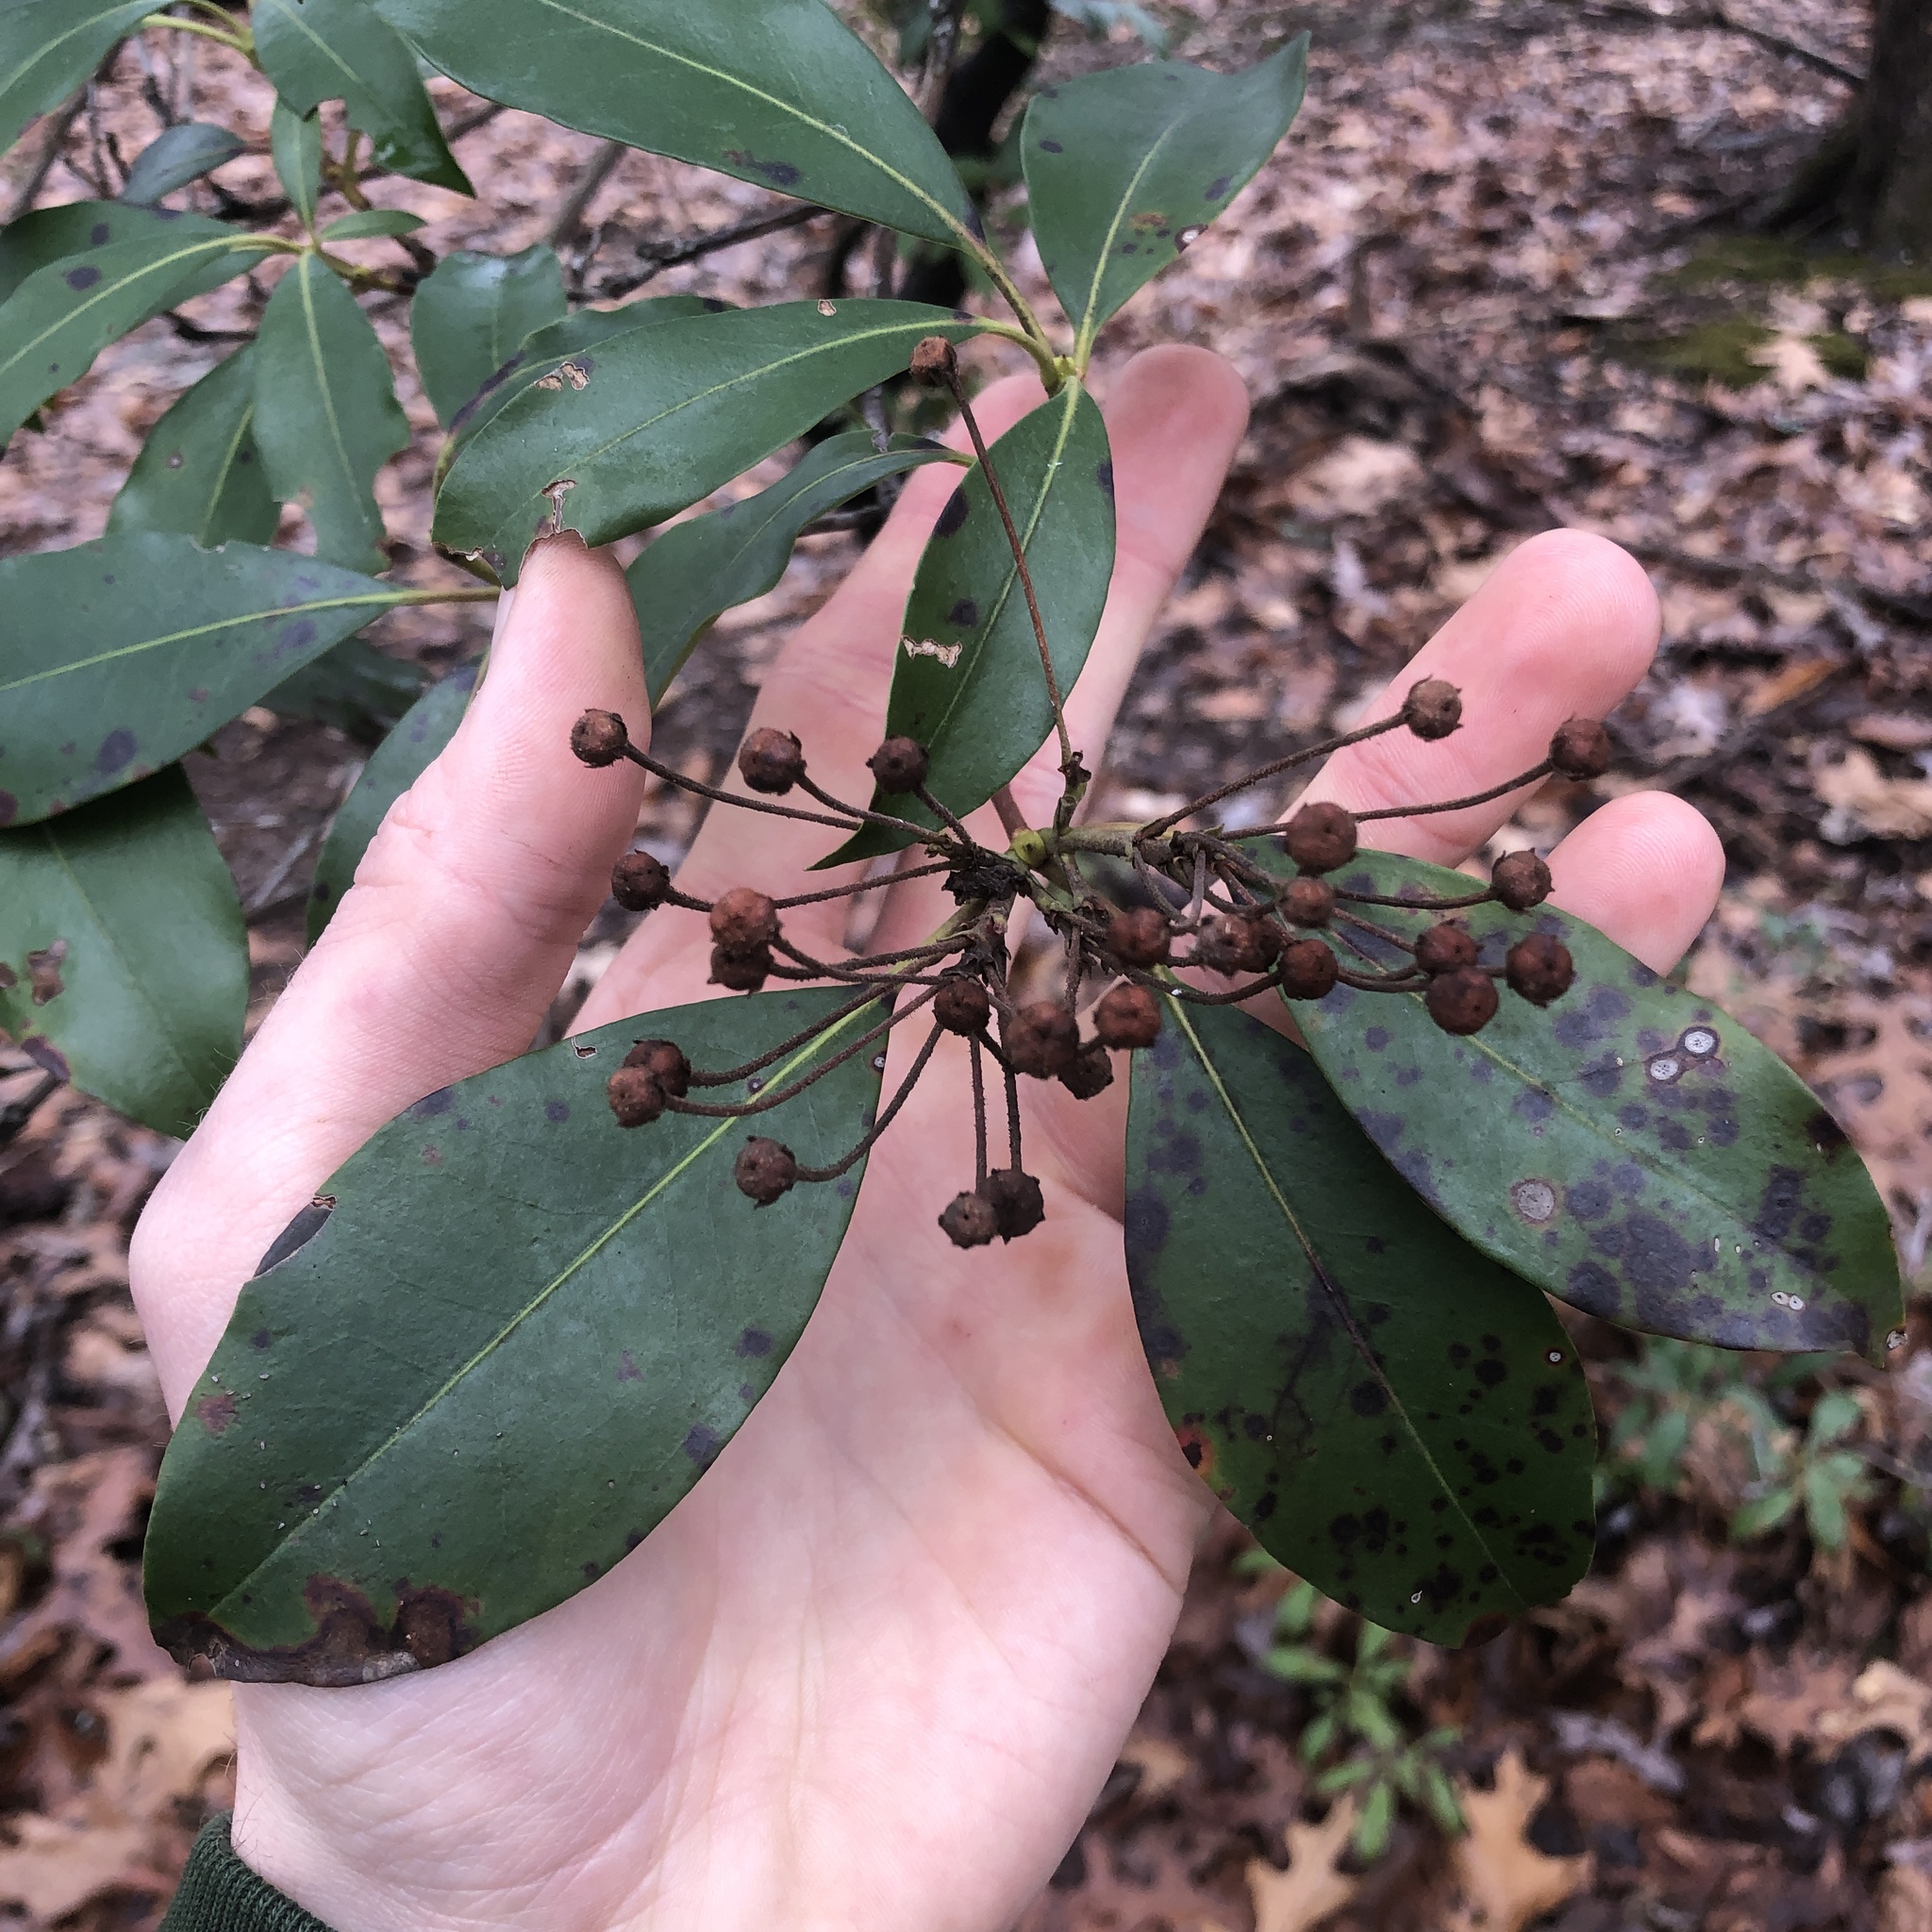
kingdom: Plantae
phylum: Tracheophyta
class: Magnoliopsida
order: Ericales
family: Ericaceae
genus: Kalmia
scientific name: Kalmia latifolia
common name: Mountain-laurel
